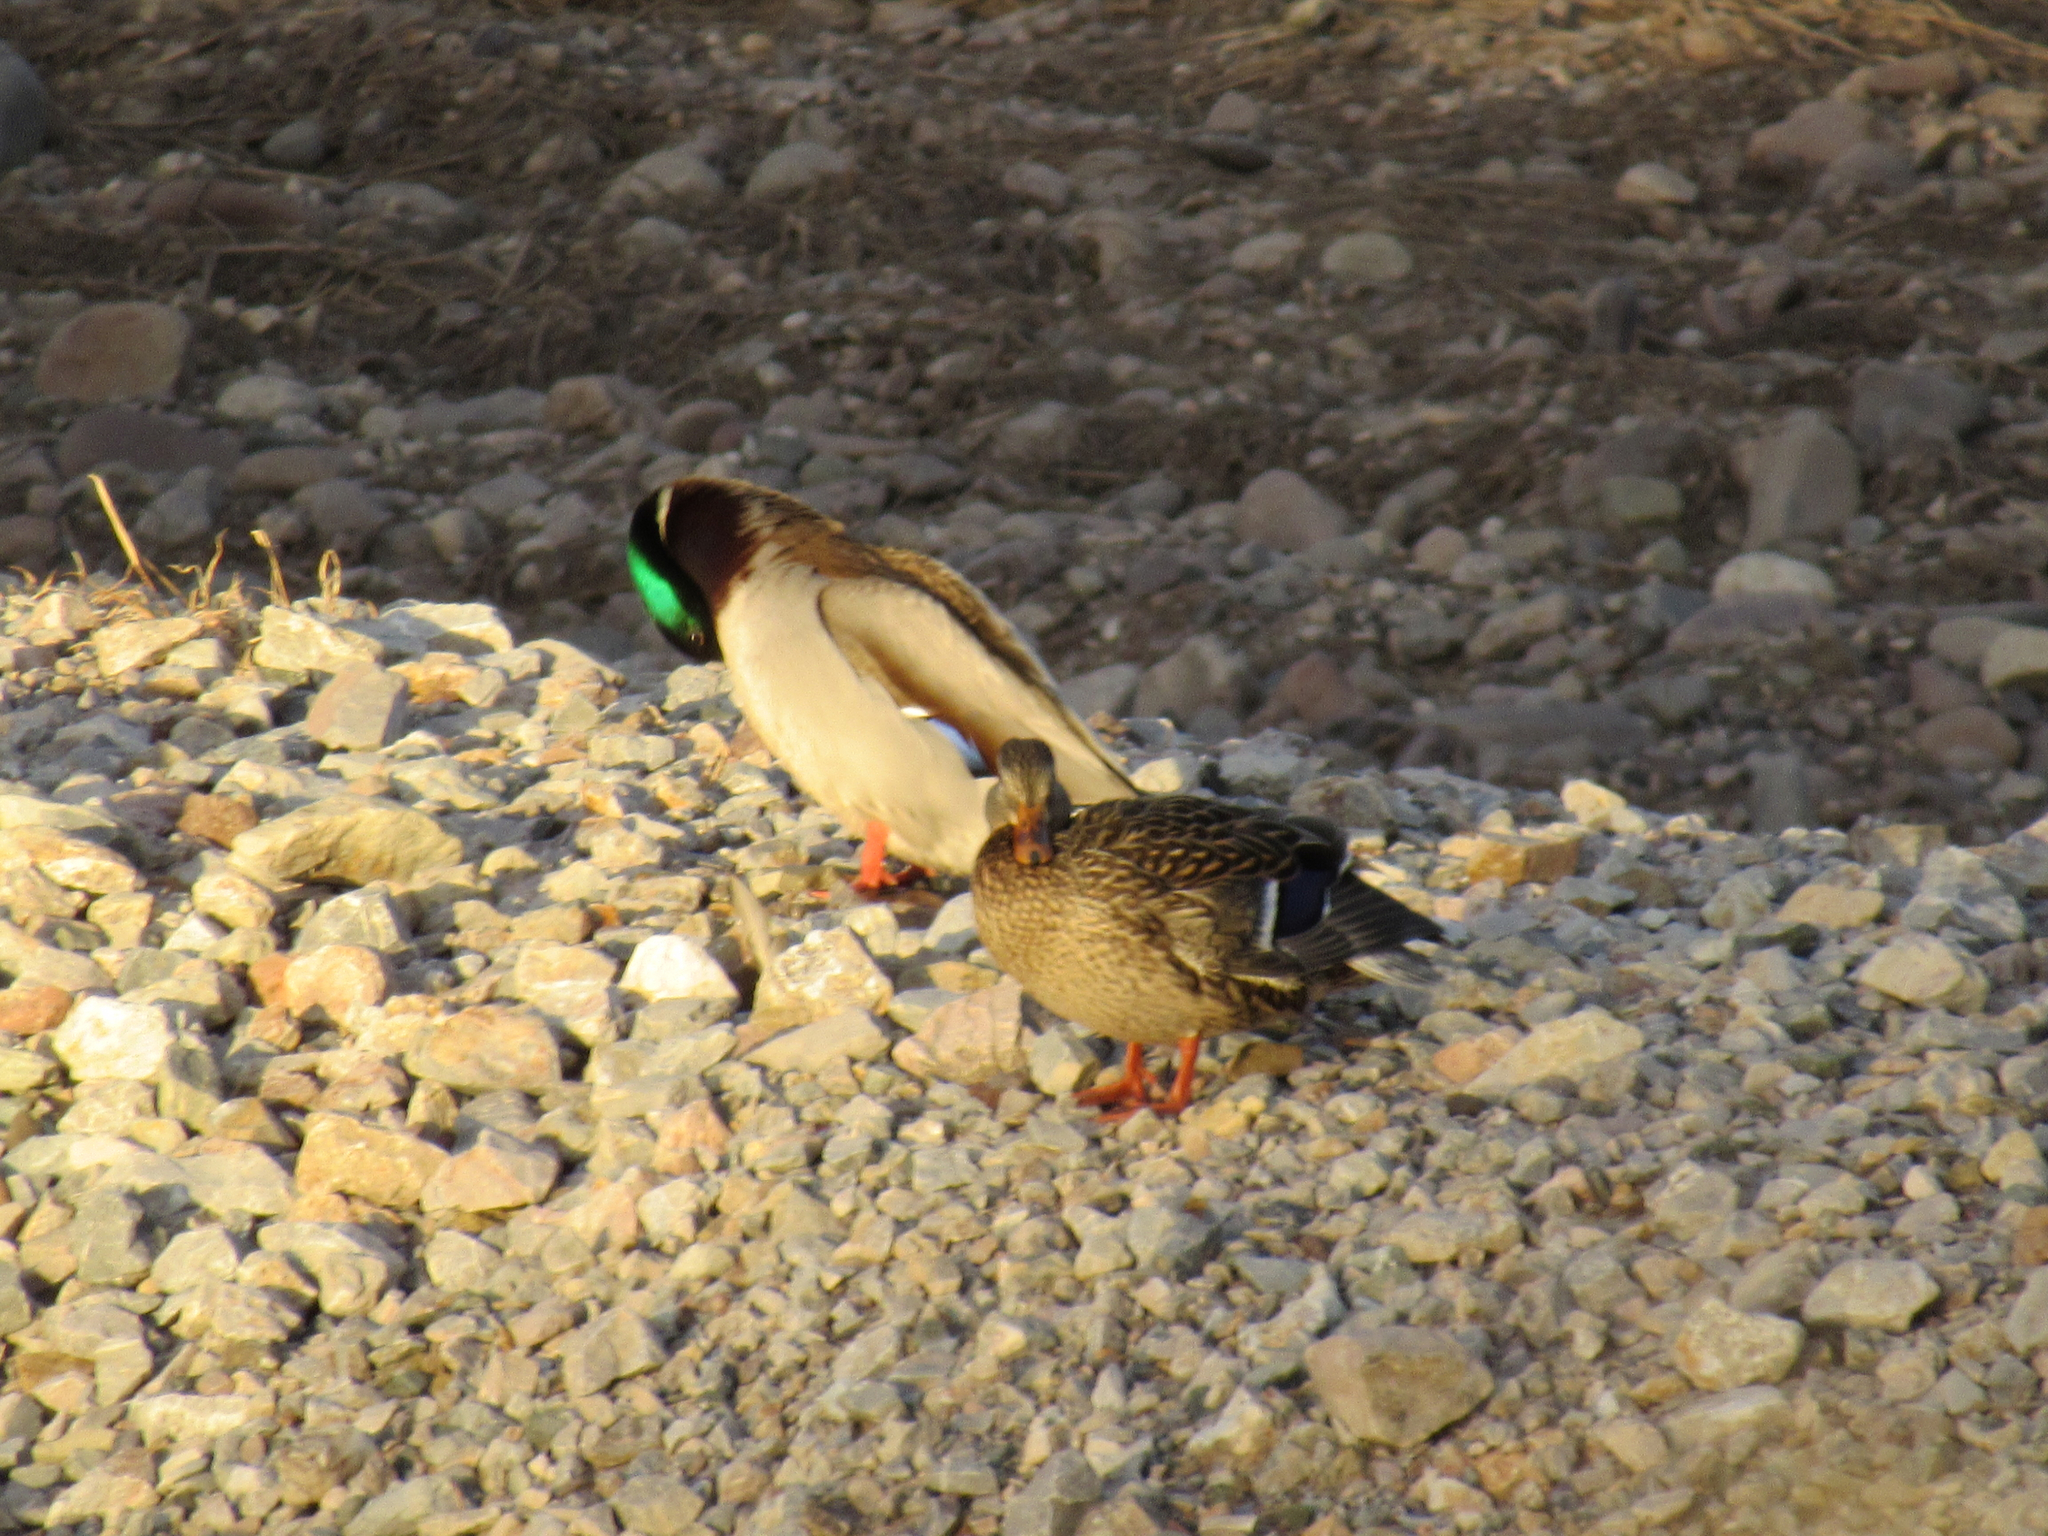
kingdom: Animalia
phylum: Chordata
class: Aves
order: Anseriformes
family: Anatidae
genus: Anas
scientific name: Anas platyrhynchos
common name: Mallard
